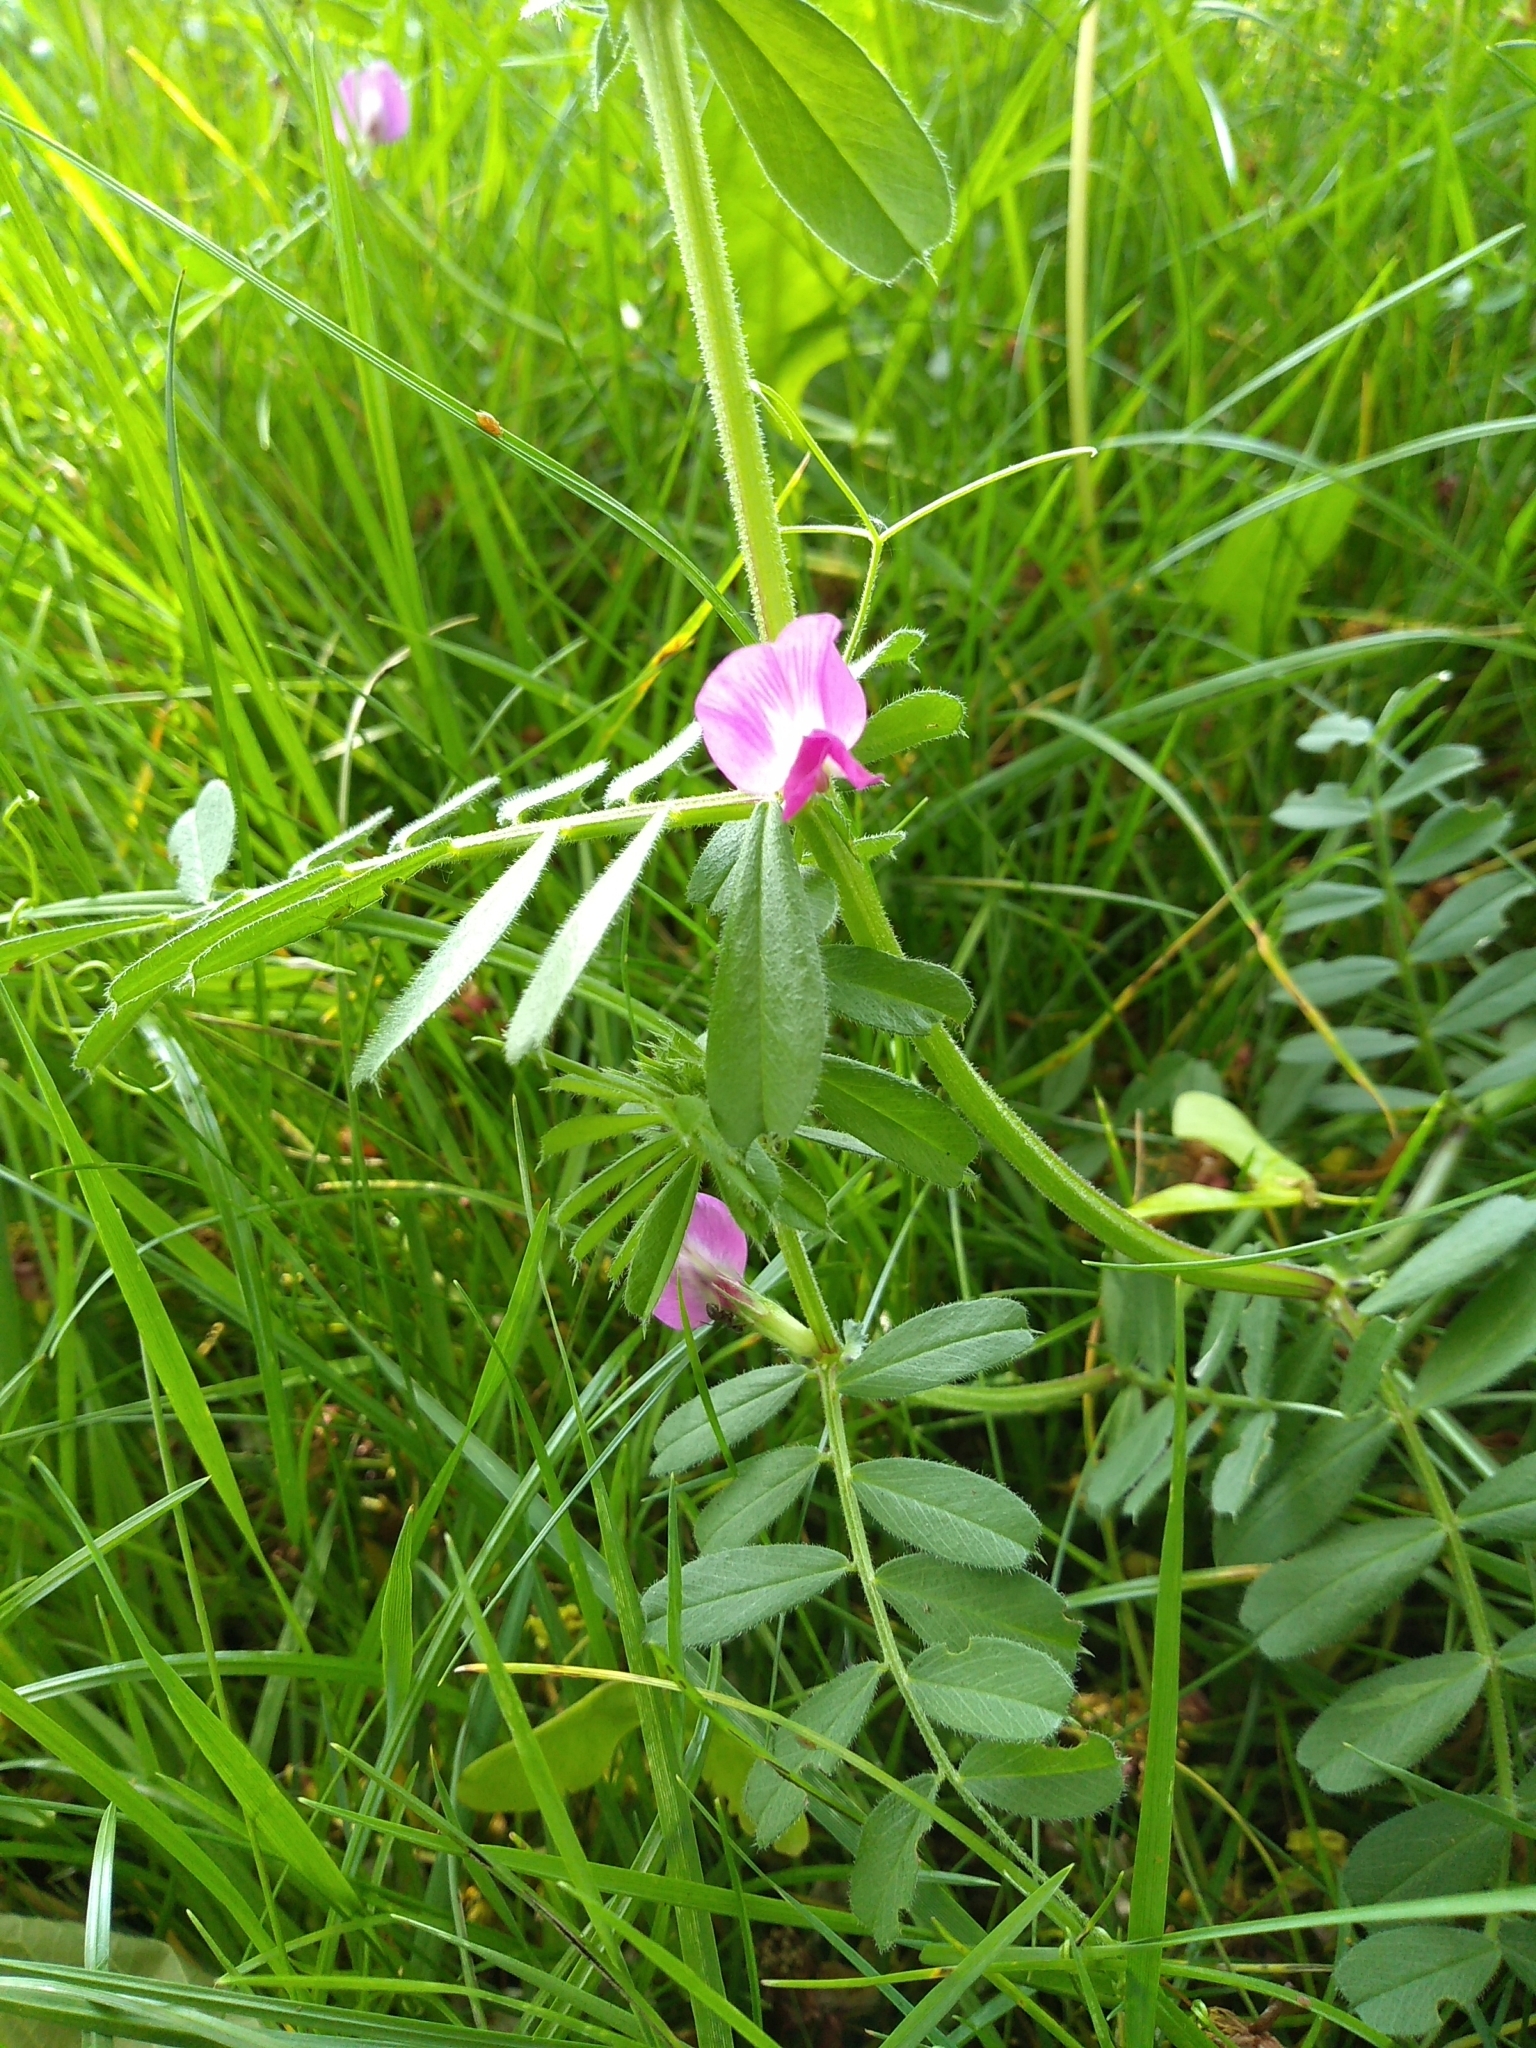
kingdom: Plantae
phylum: Tracheophyta
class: Magnoliopsida
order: Fabales
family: Fabaceae
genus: Vicia
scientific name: Vicia sativa
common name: Garden vetch
